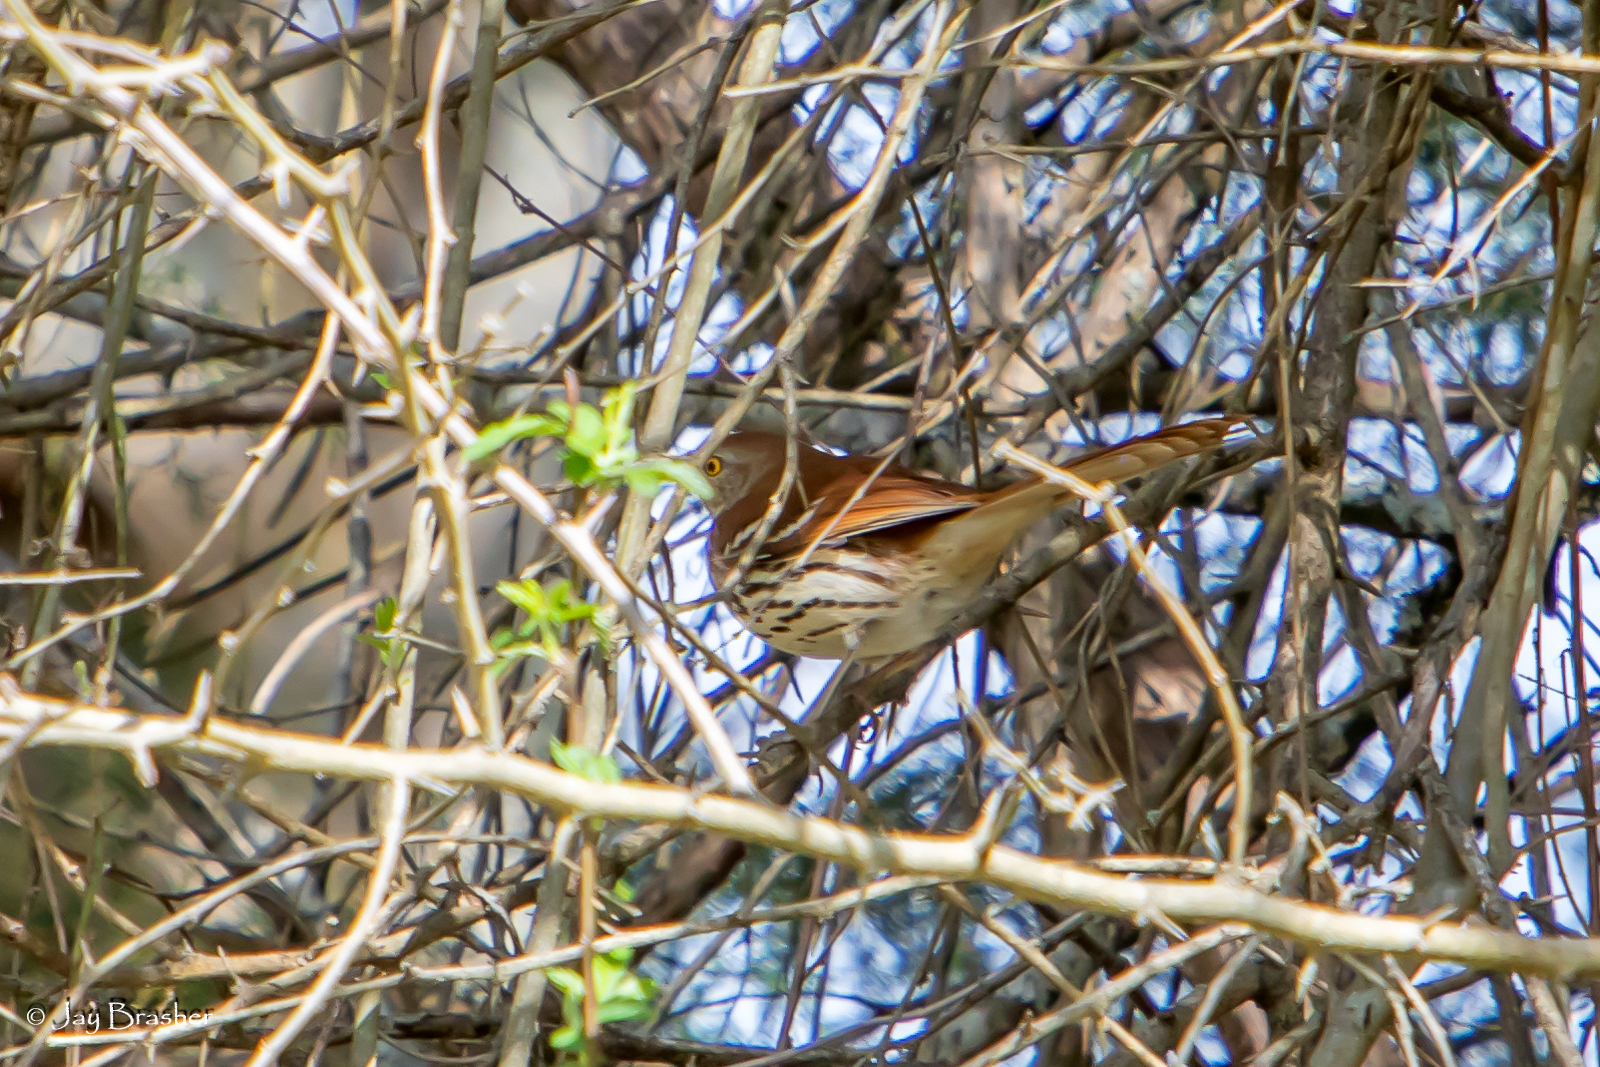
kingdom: Animalia
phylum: Chordata
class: Aves
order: Passeriformes
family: Mimidae
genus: Toxostoma
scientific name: Toxostoma rufum
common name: Brown thrasher
